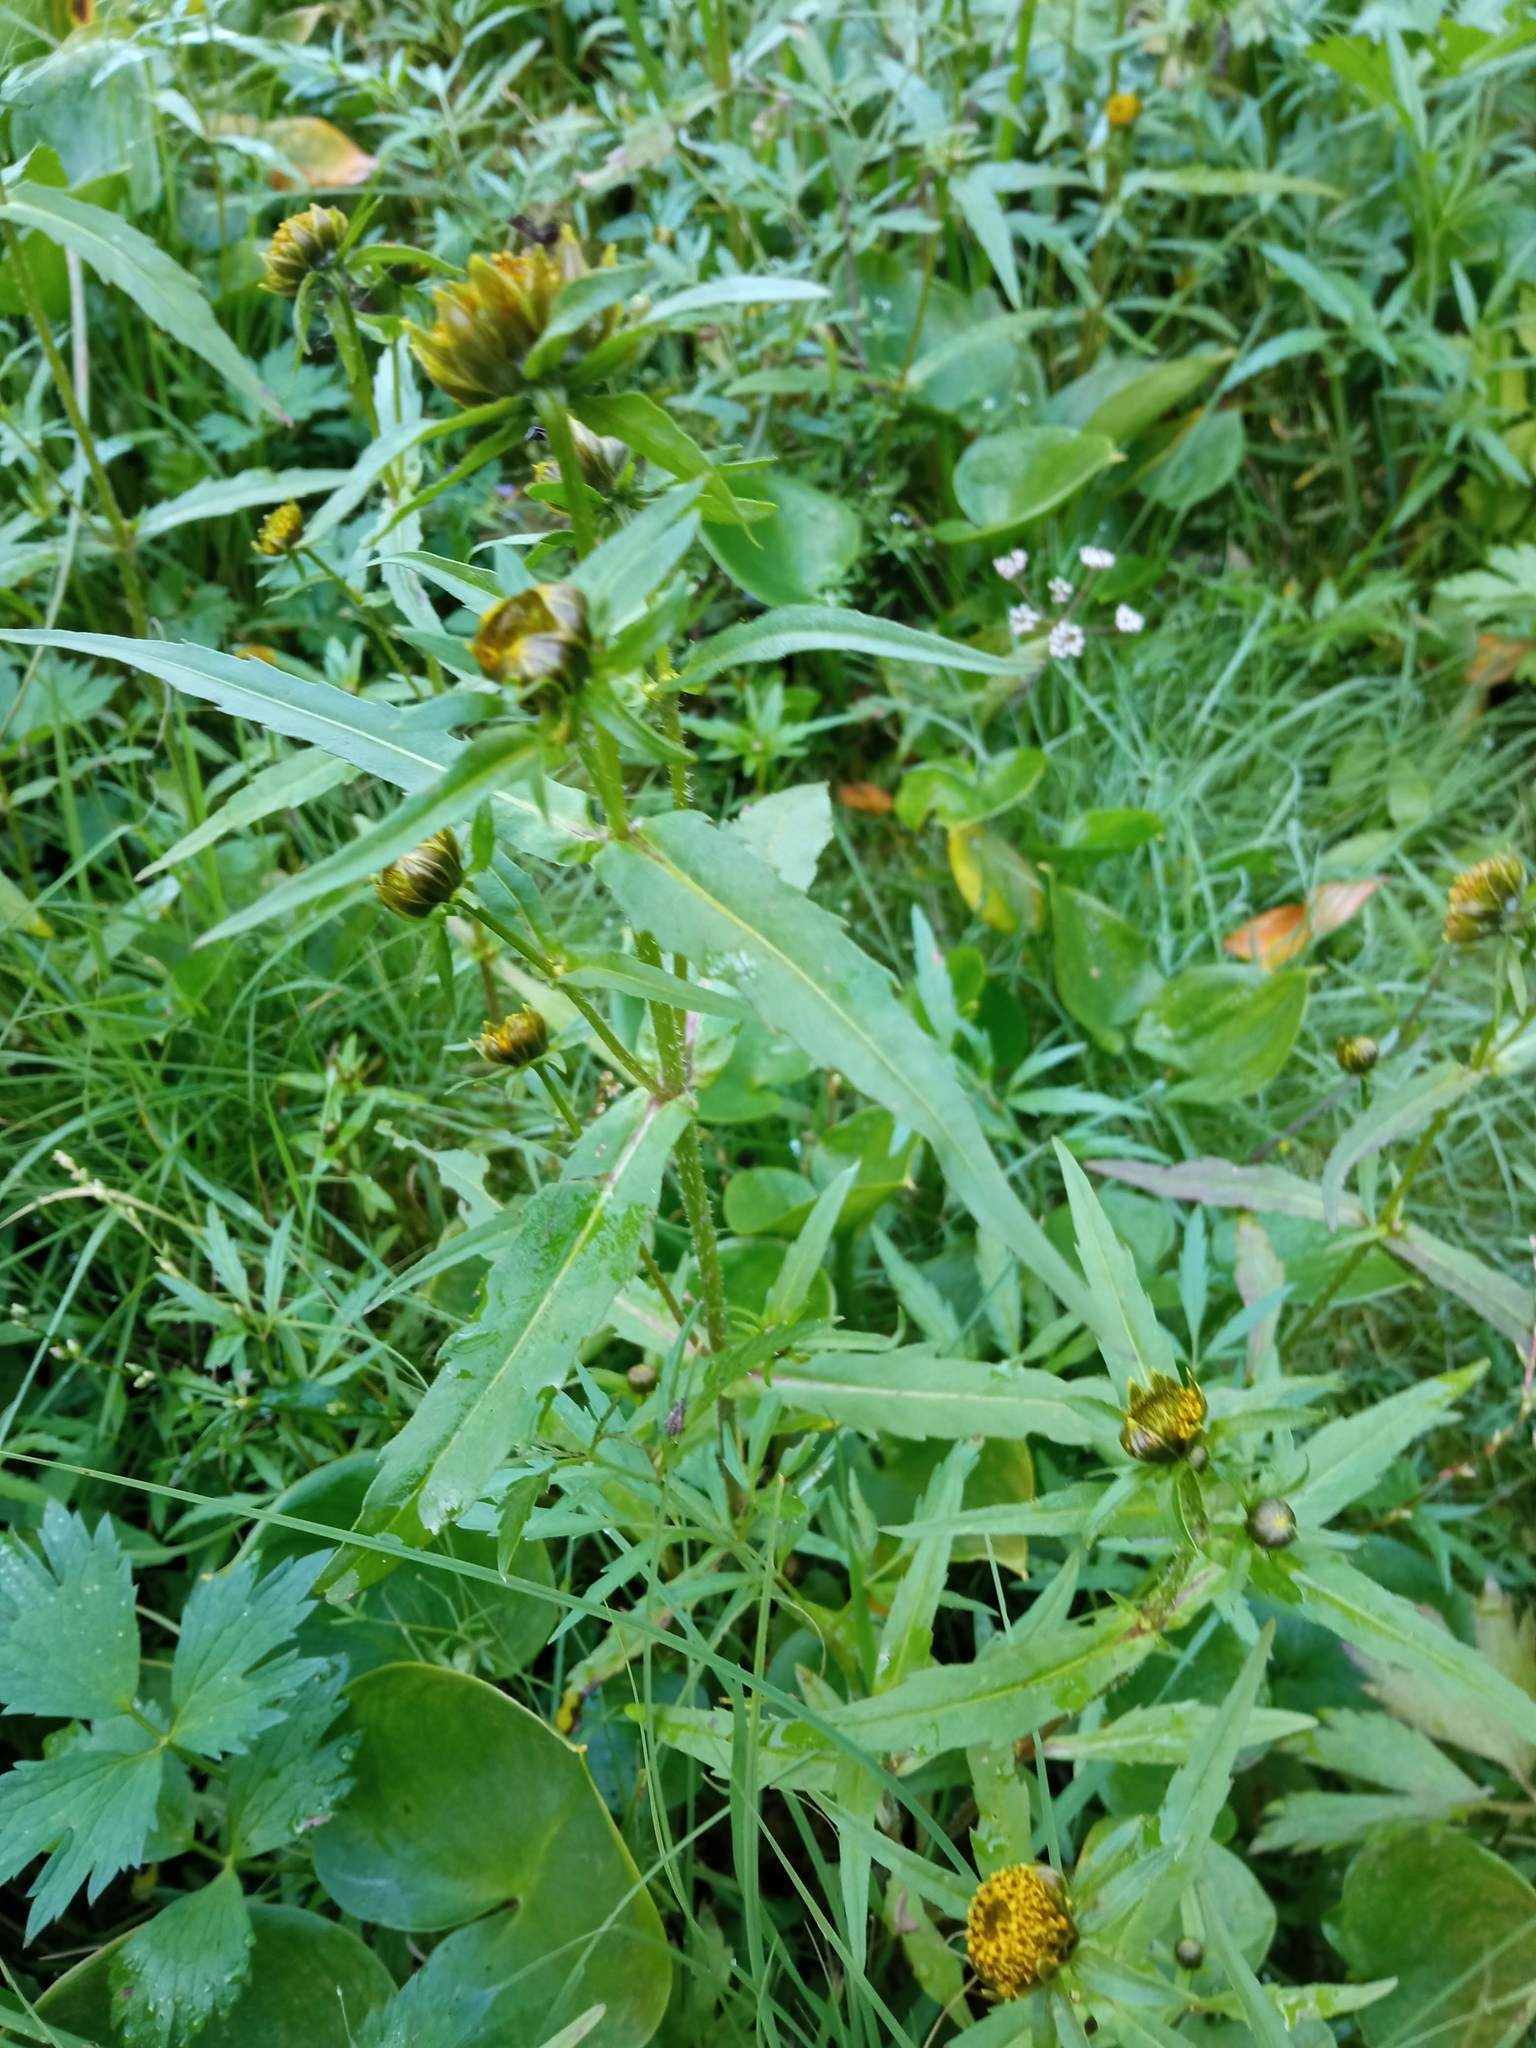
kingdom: Plantae
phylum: Tracheophyta
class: Magnoliopsida
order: Asterales
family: Asteraceae
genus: Bidens
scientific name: Bidens cernua
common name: Nodding bur-marigold
